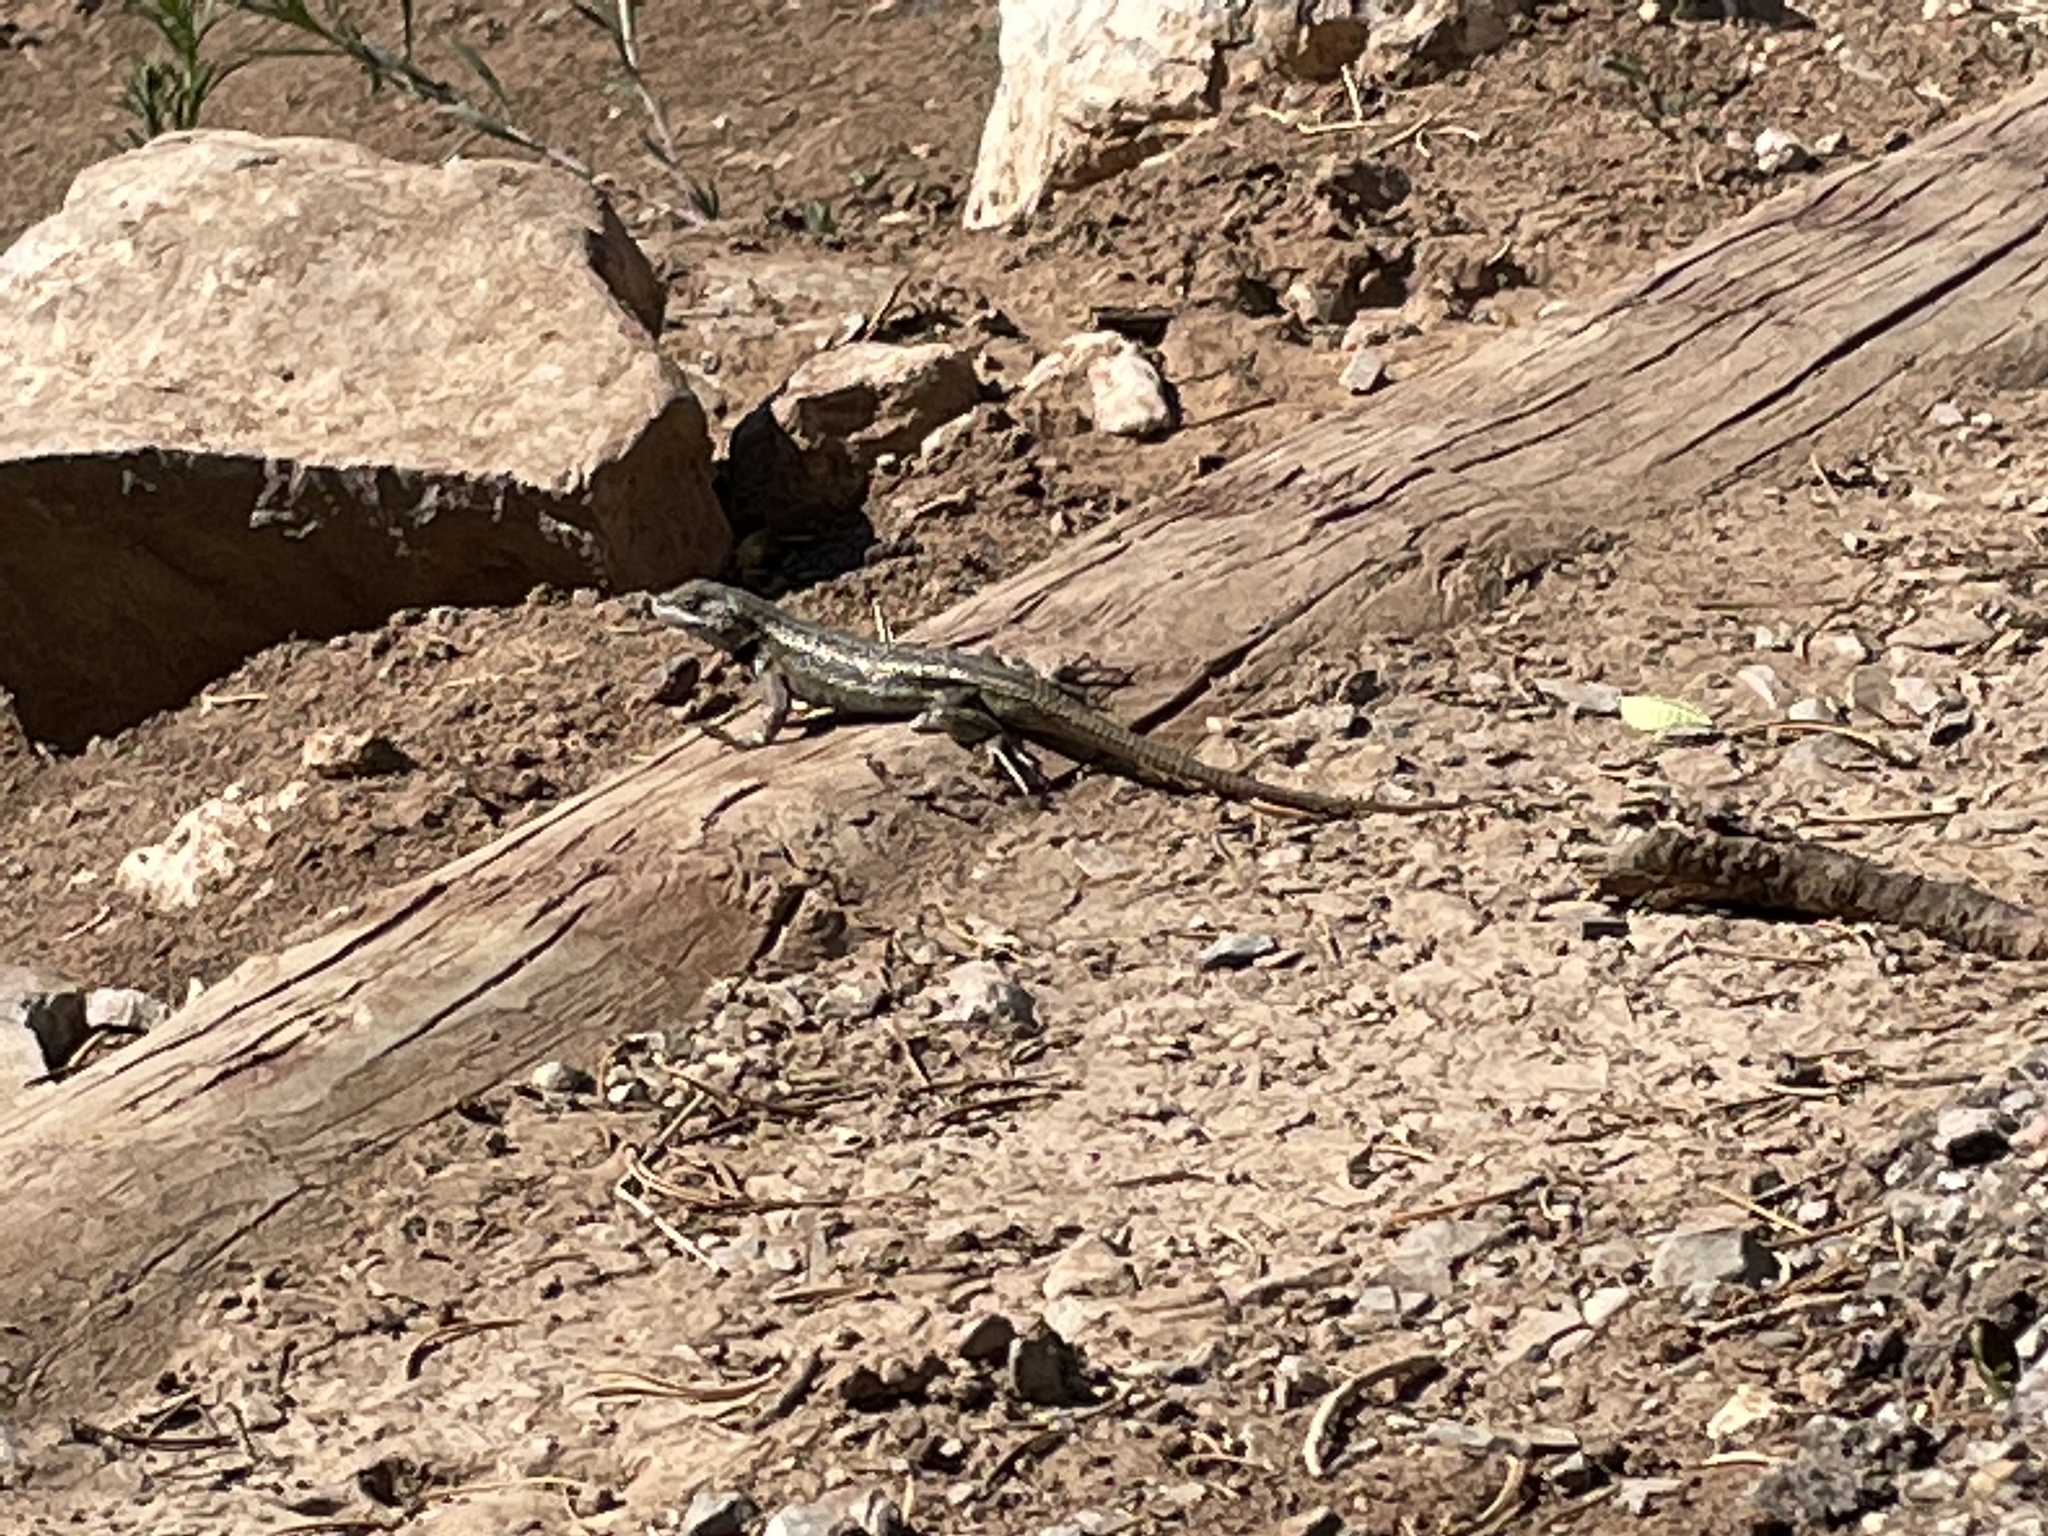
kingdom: Animalia
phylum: Chordata
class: Squamata
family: Phrynosomatidae
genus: Sceloporus
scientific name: Sceloporus cowlesi
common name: White sands prairie lizard
